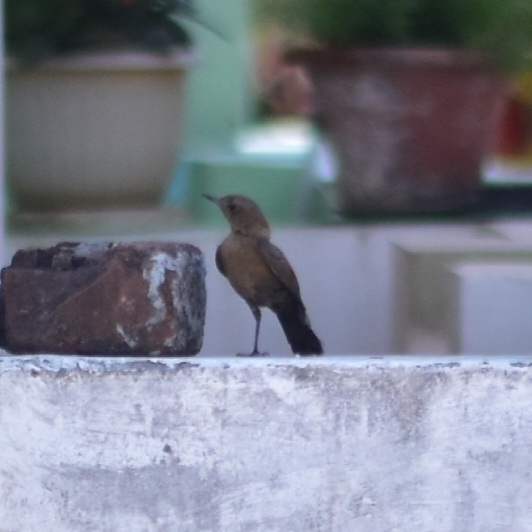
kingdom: Animalia
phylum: Chordata
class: Aves
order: Passeriformes
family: Muscicapidae
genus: Oenanthe
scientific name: Oenanthe fusca
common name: Brown rock chat
